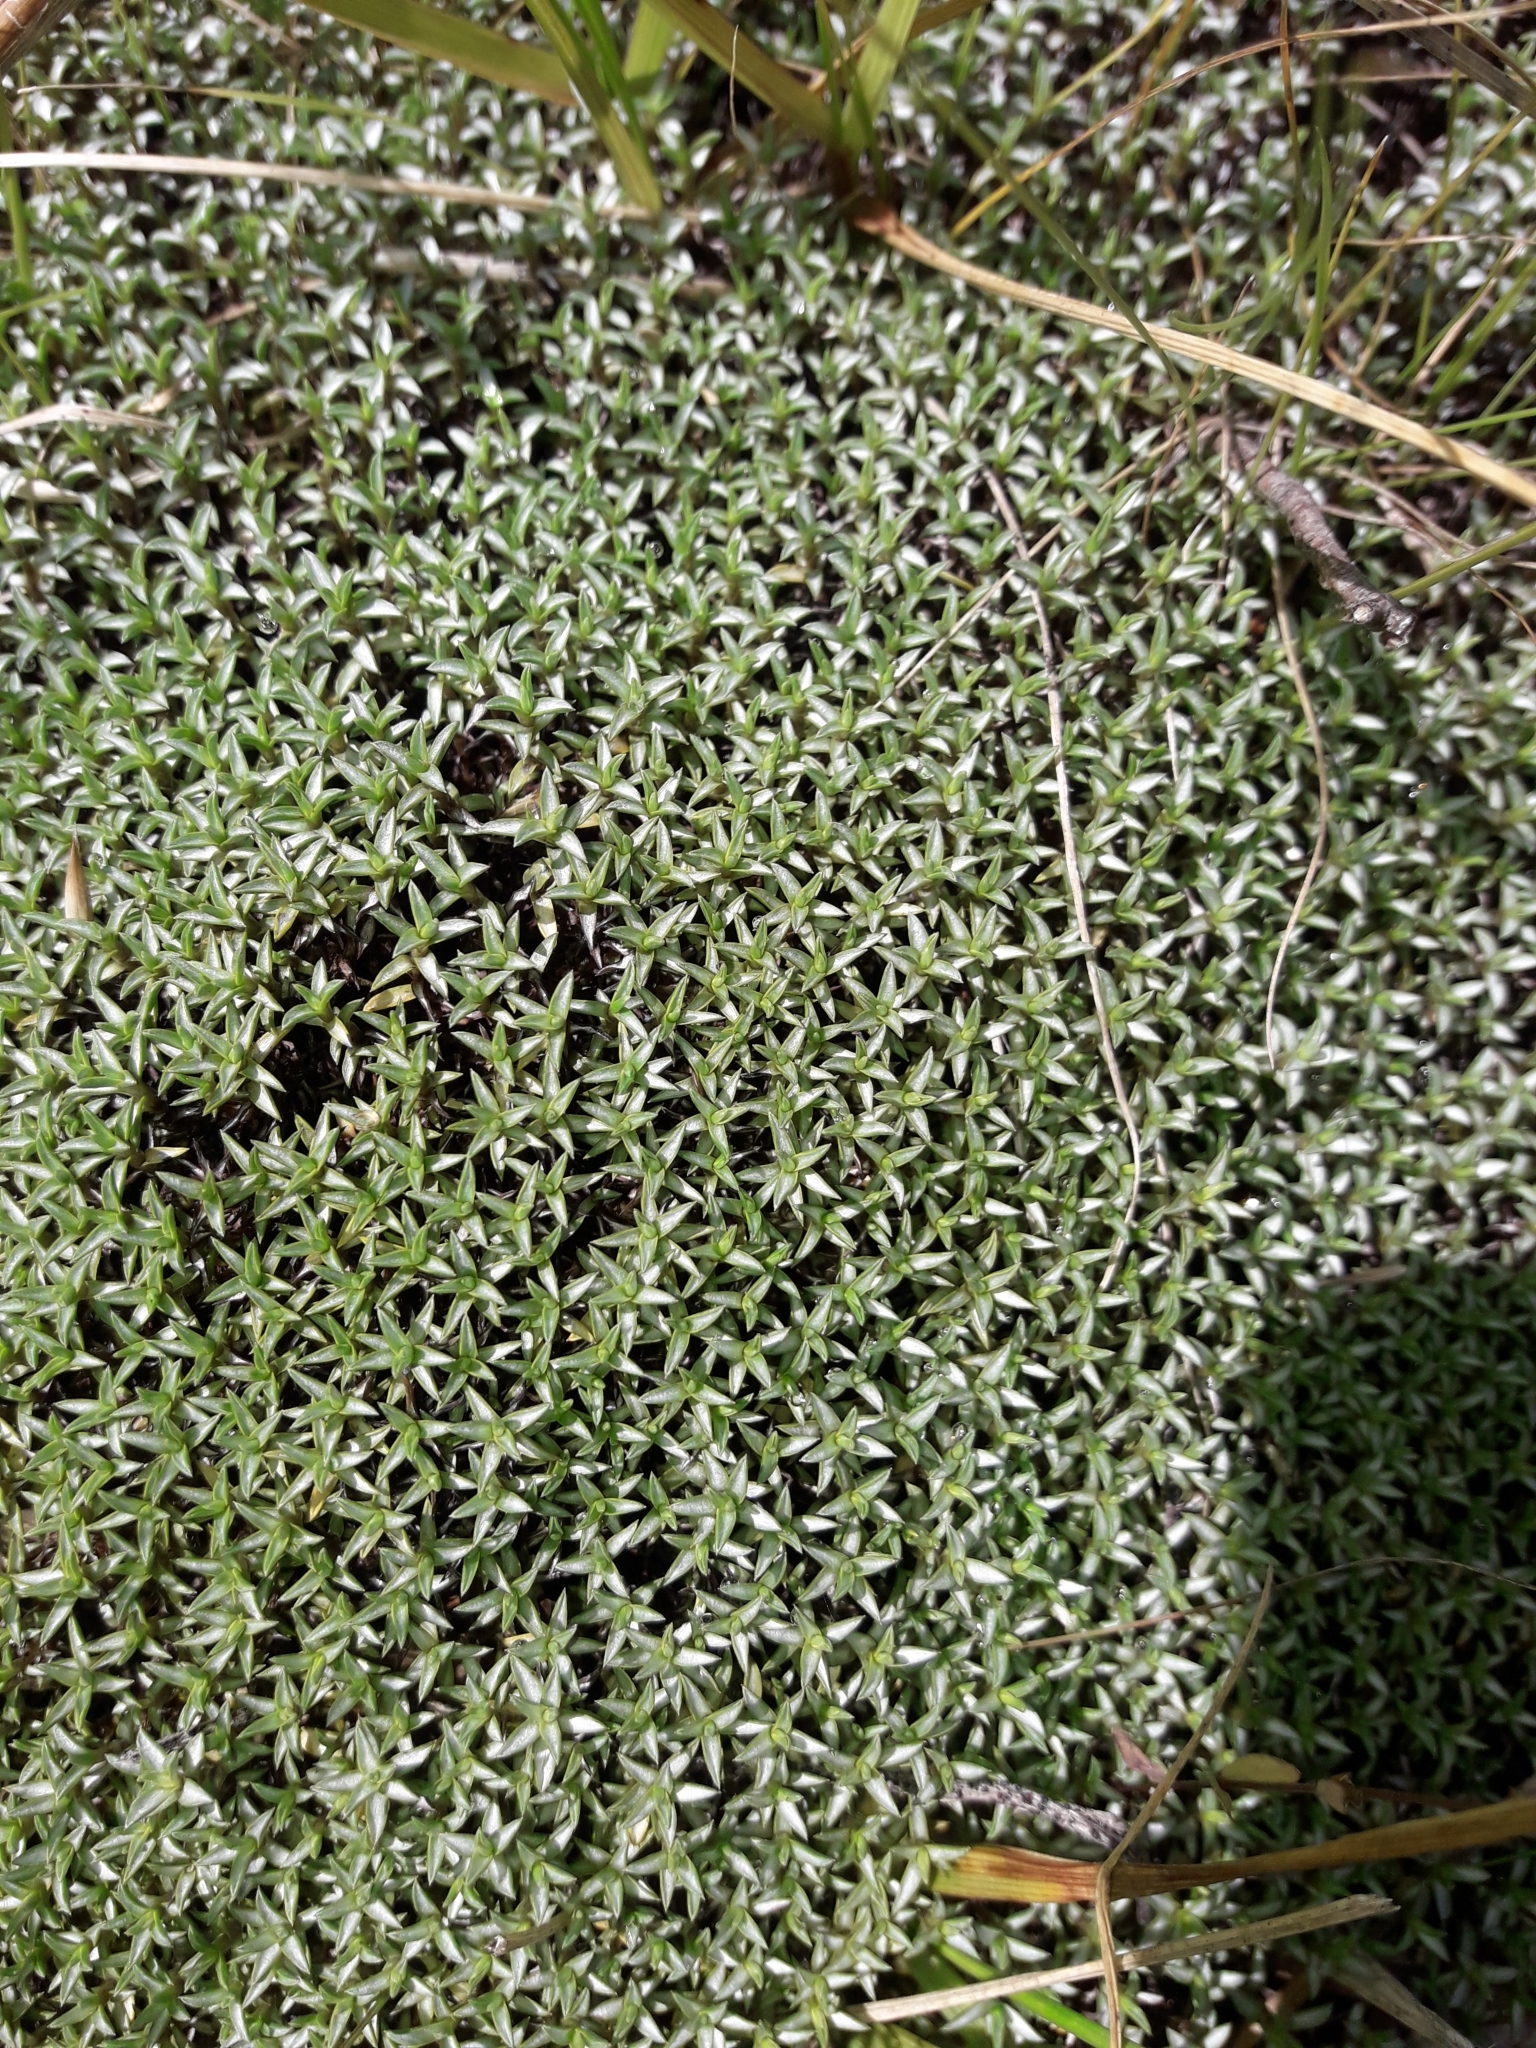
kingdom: Plantae
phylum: Tracheophyta
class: Magnoliopsida
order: Asterales
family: Asteraceae
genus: Raoulia
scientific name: Raoulia tenuicaulis
